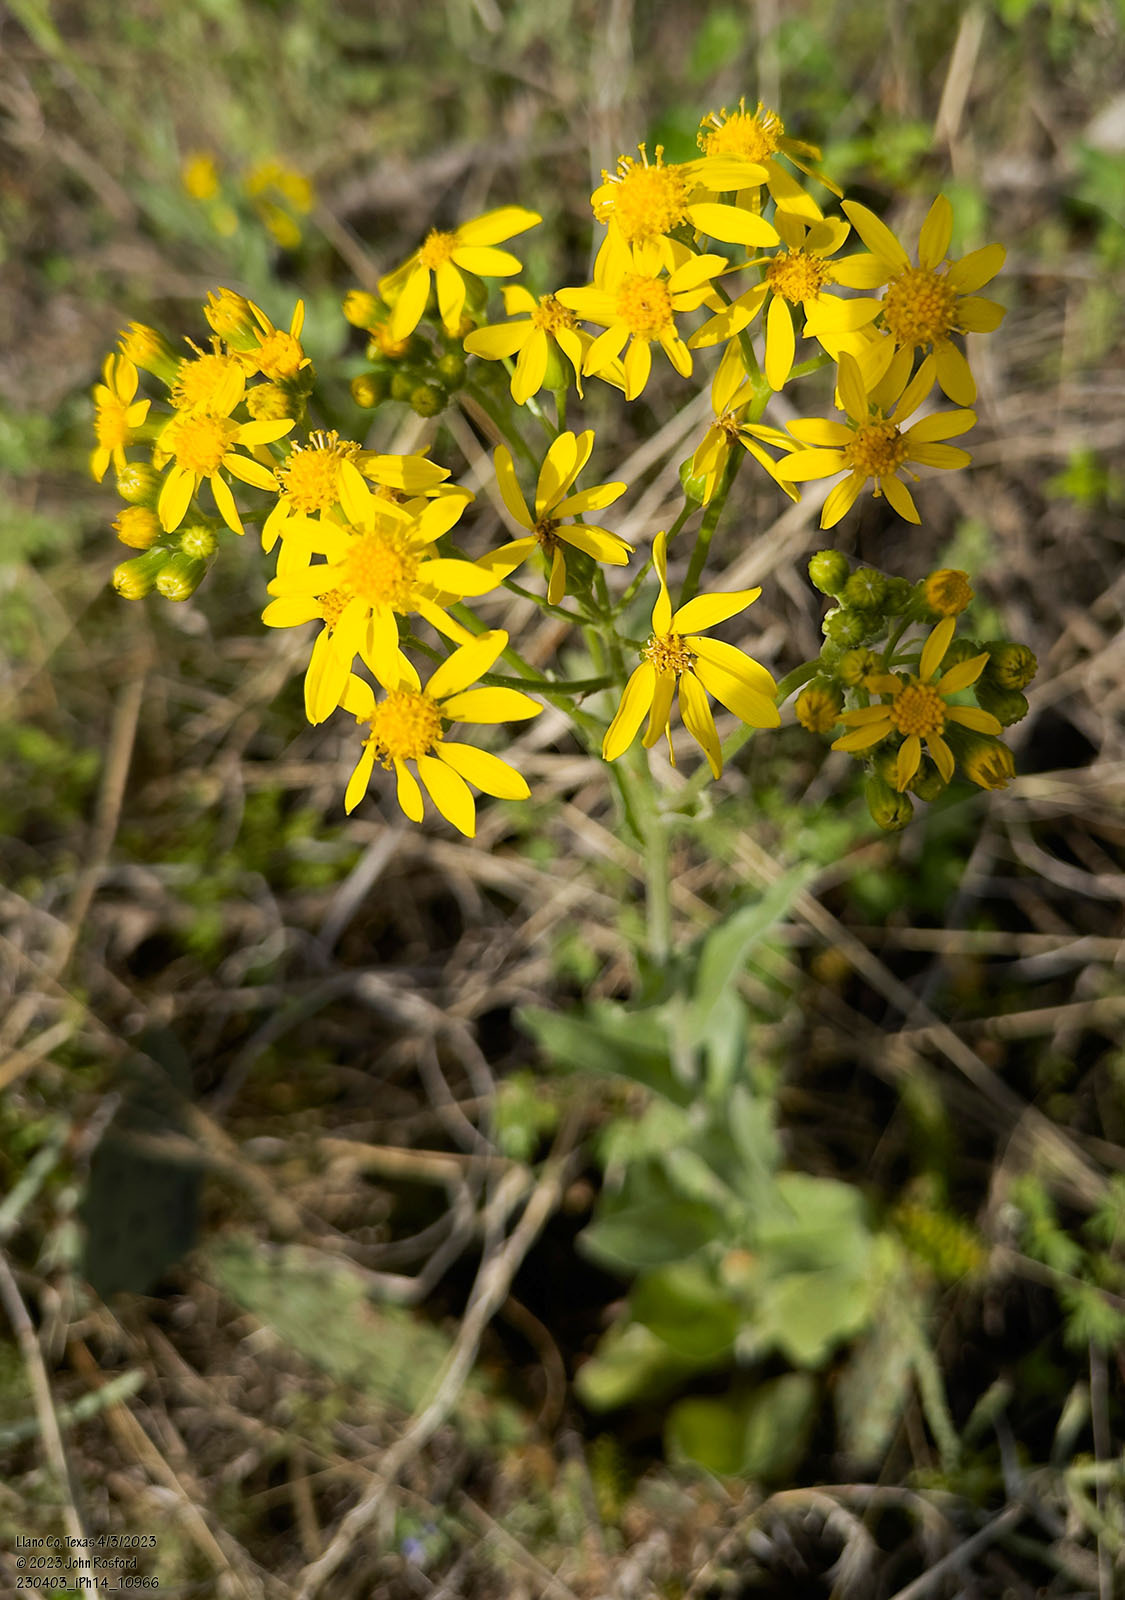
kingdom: Plantae
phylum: Tracheophyta
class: Magnoliopsida
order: Asterales
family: Asteraceae
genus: Senecio
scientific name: Senecio ampullaceus
